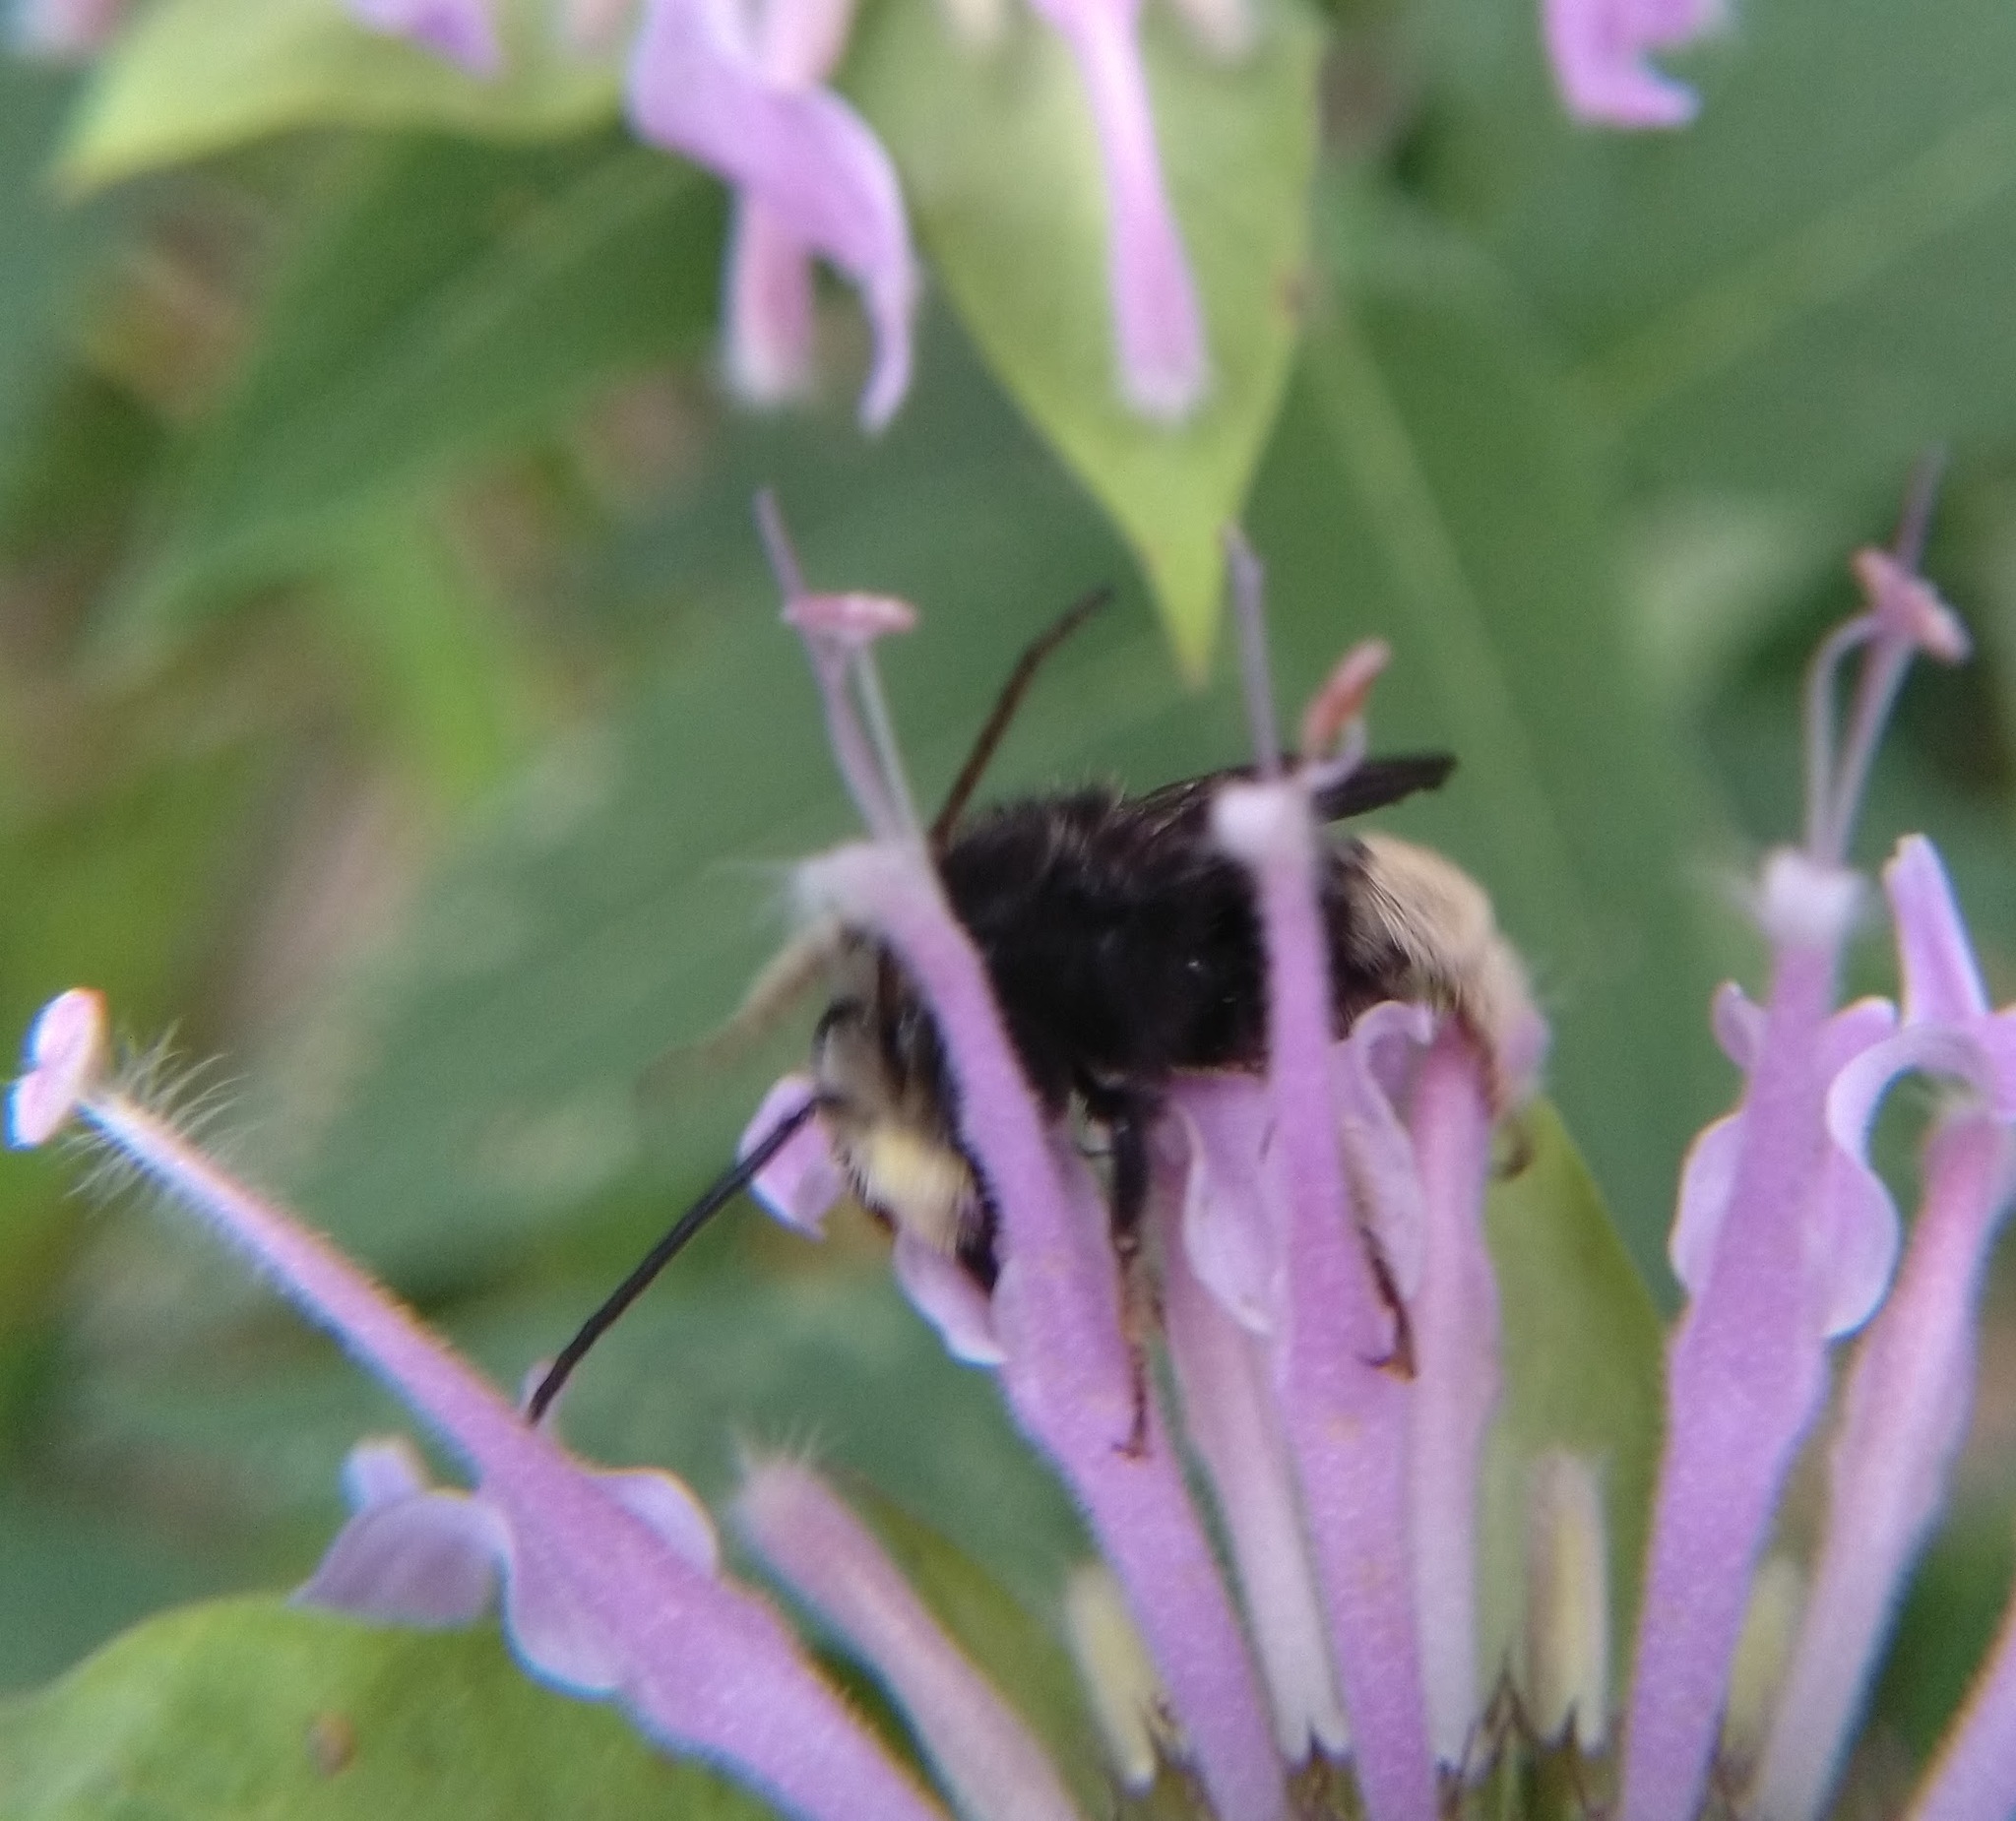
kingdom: Animalia
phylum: Arthropoda
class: Insecta
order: Hymenoptera
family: Apidae
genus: Melissodes
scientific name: Melissodes bimaculatus
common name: Two-spotted long-horned bee
